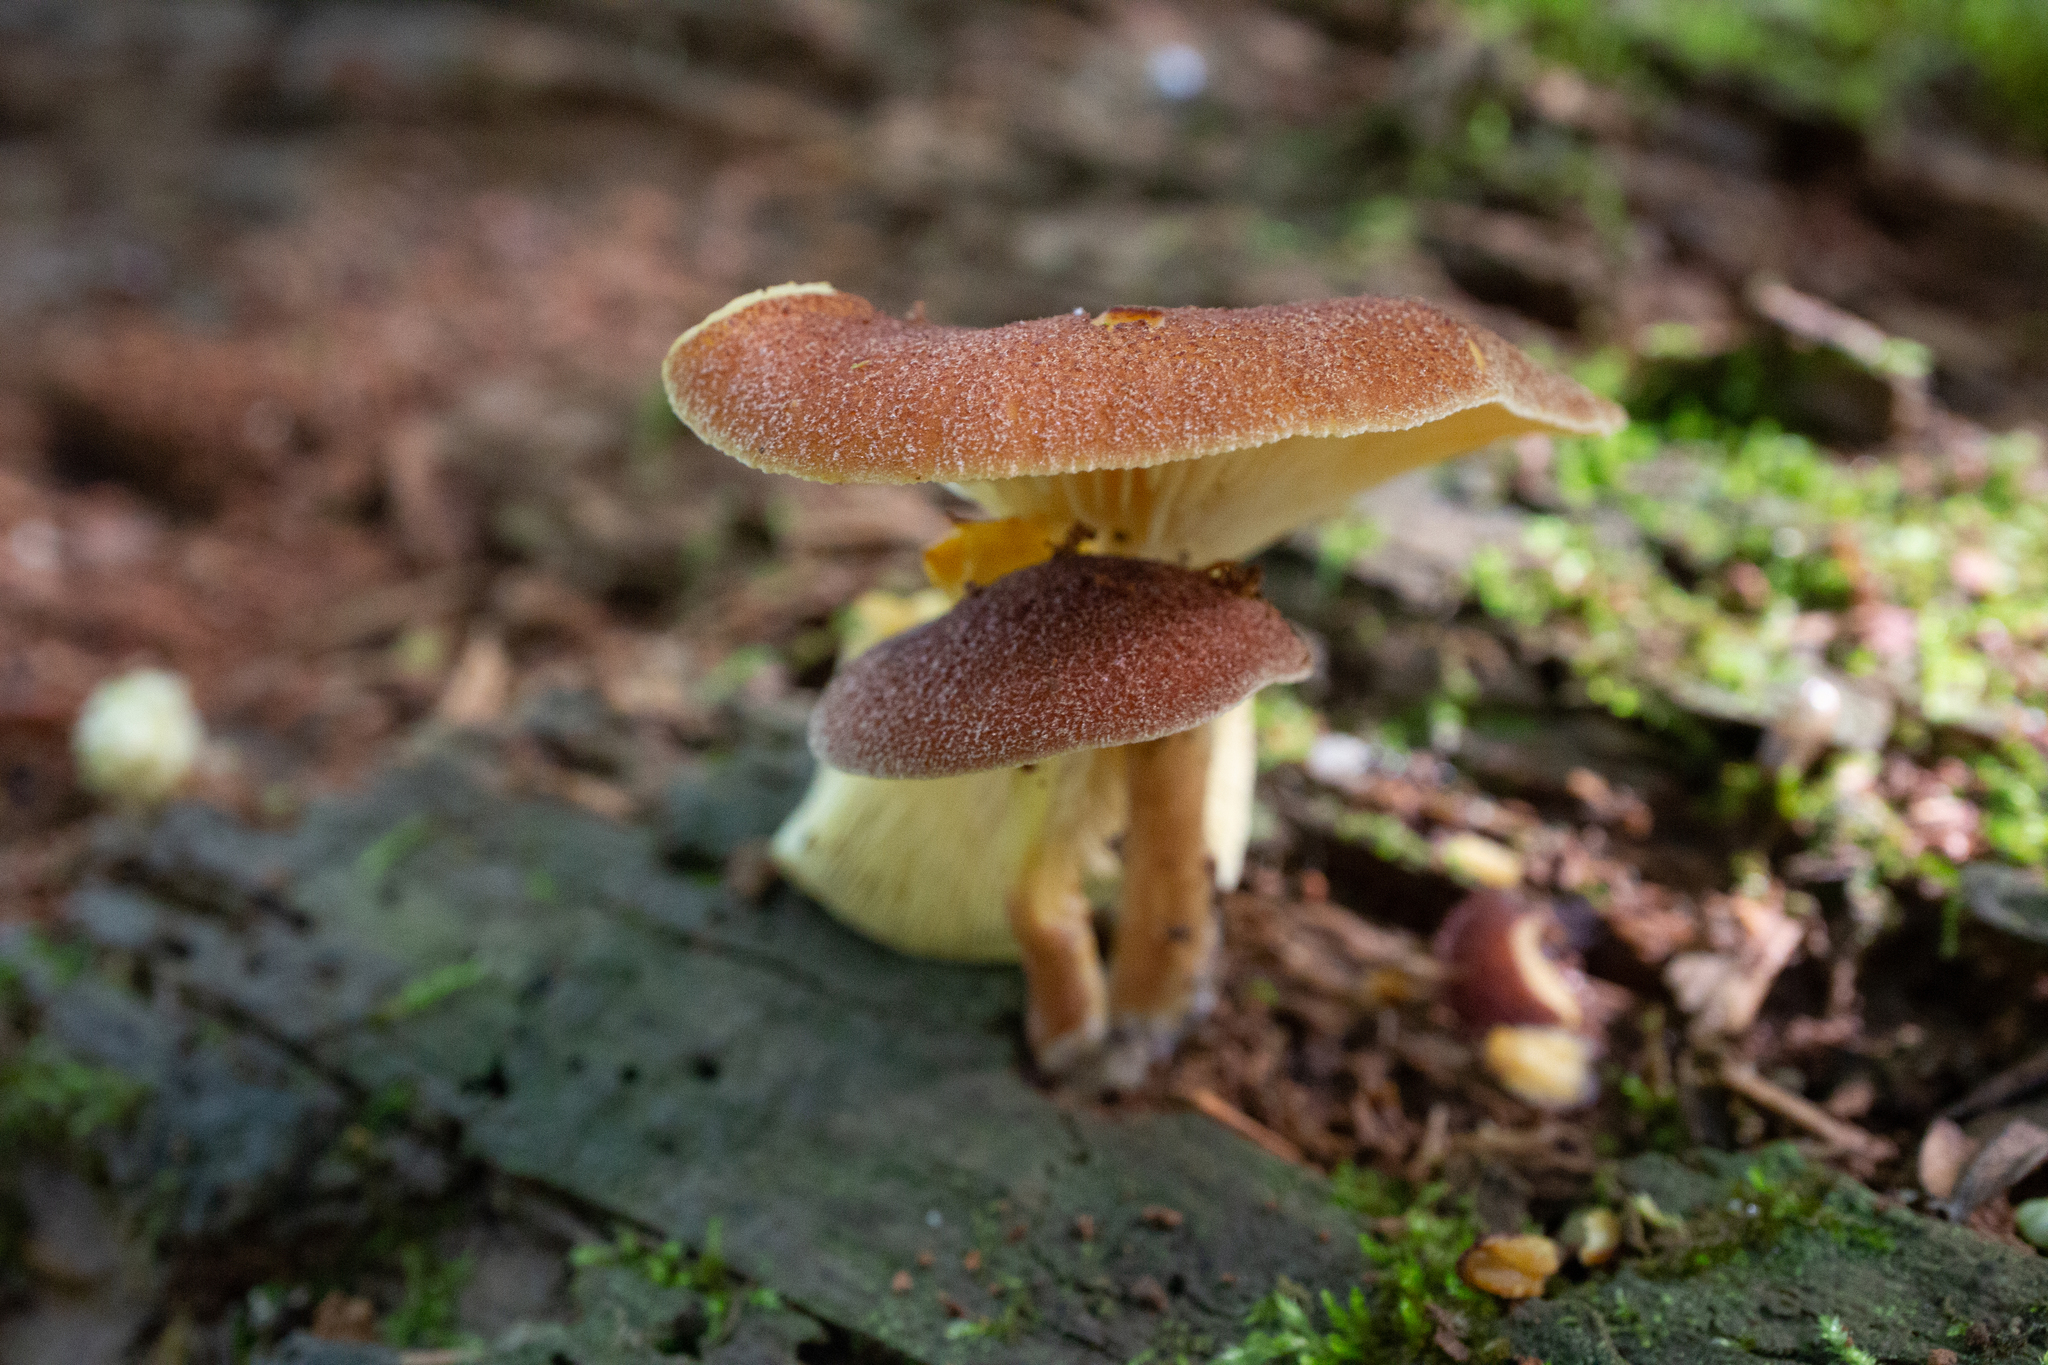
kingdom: Fungi
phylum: Basidiomycota
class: Agaricomycetes
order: Agaricales
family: Tricholomataceae
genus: Tricholomopsis
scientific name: Tricholomopsis rutilans
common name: Plums and custard
